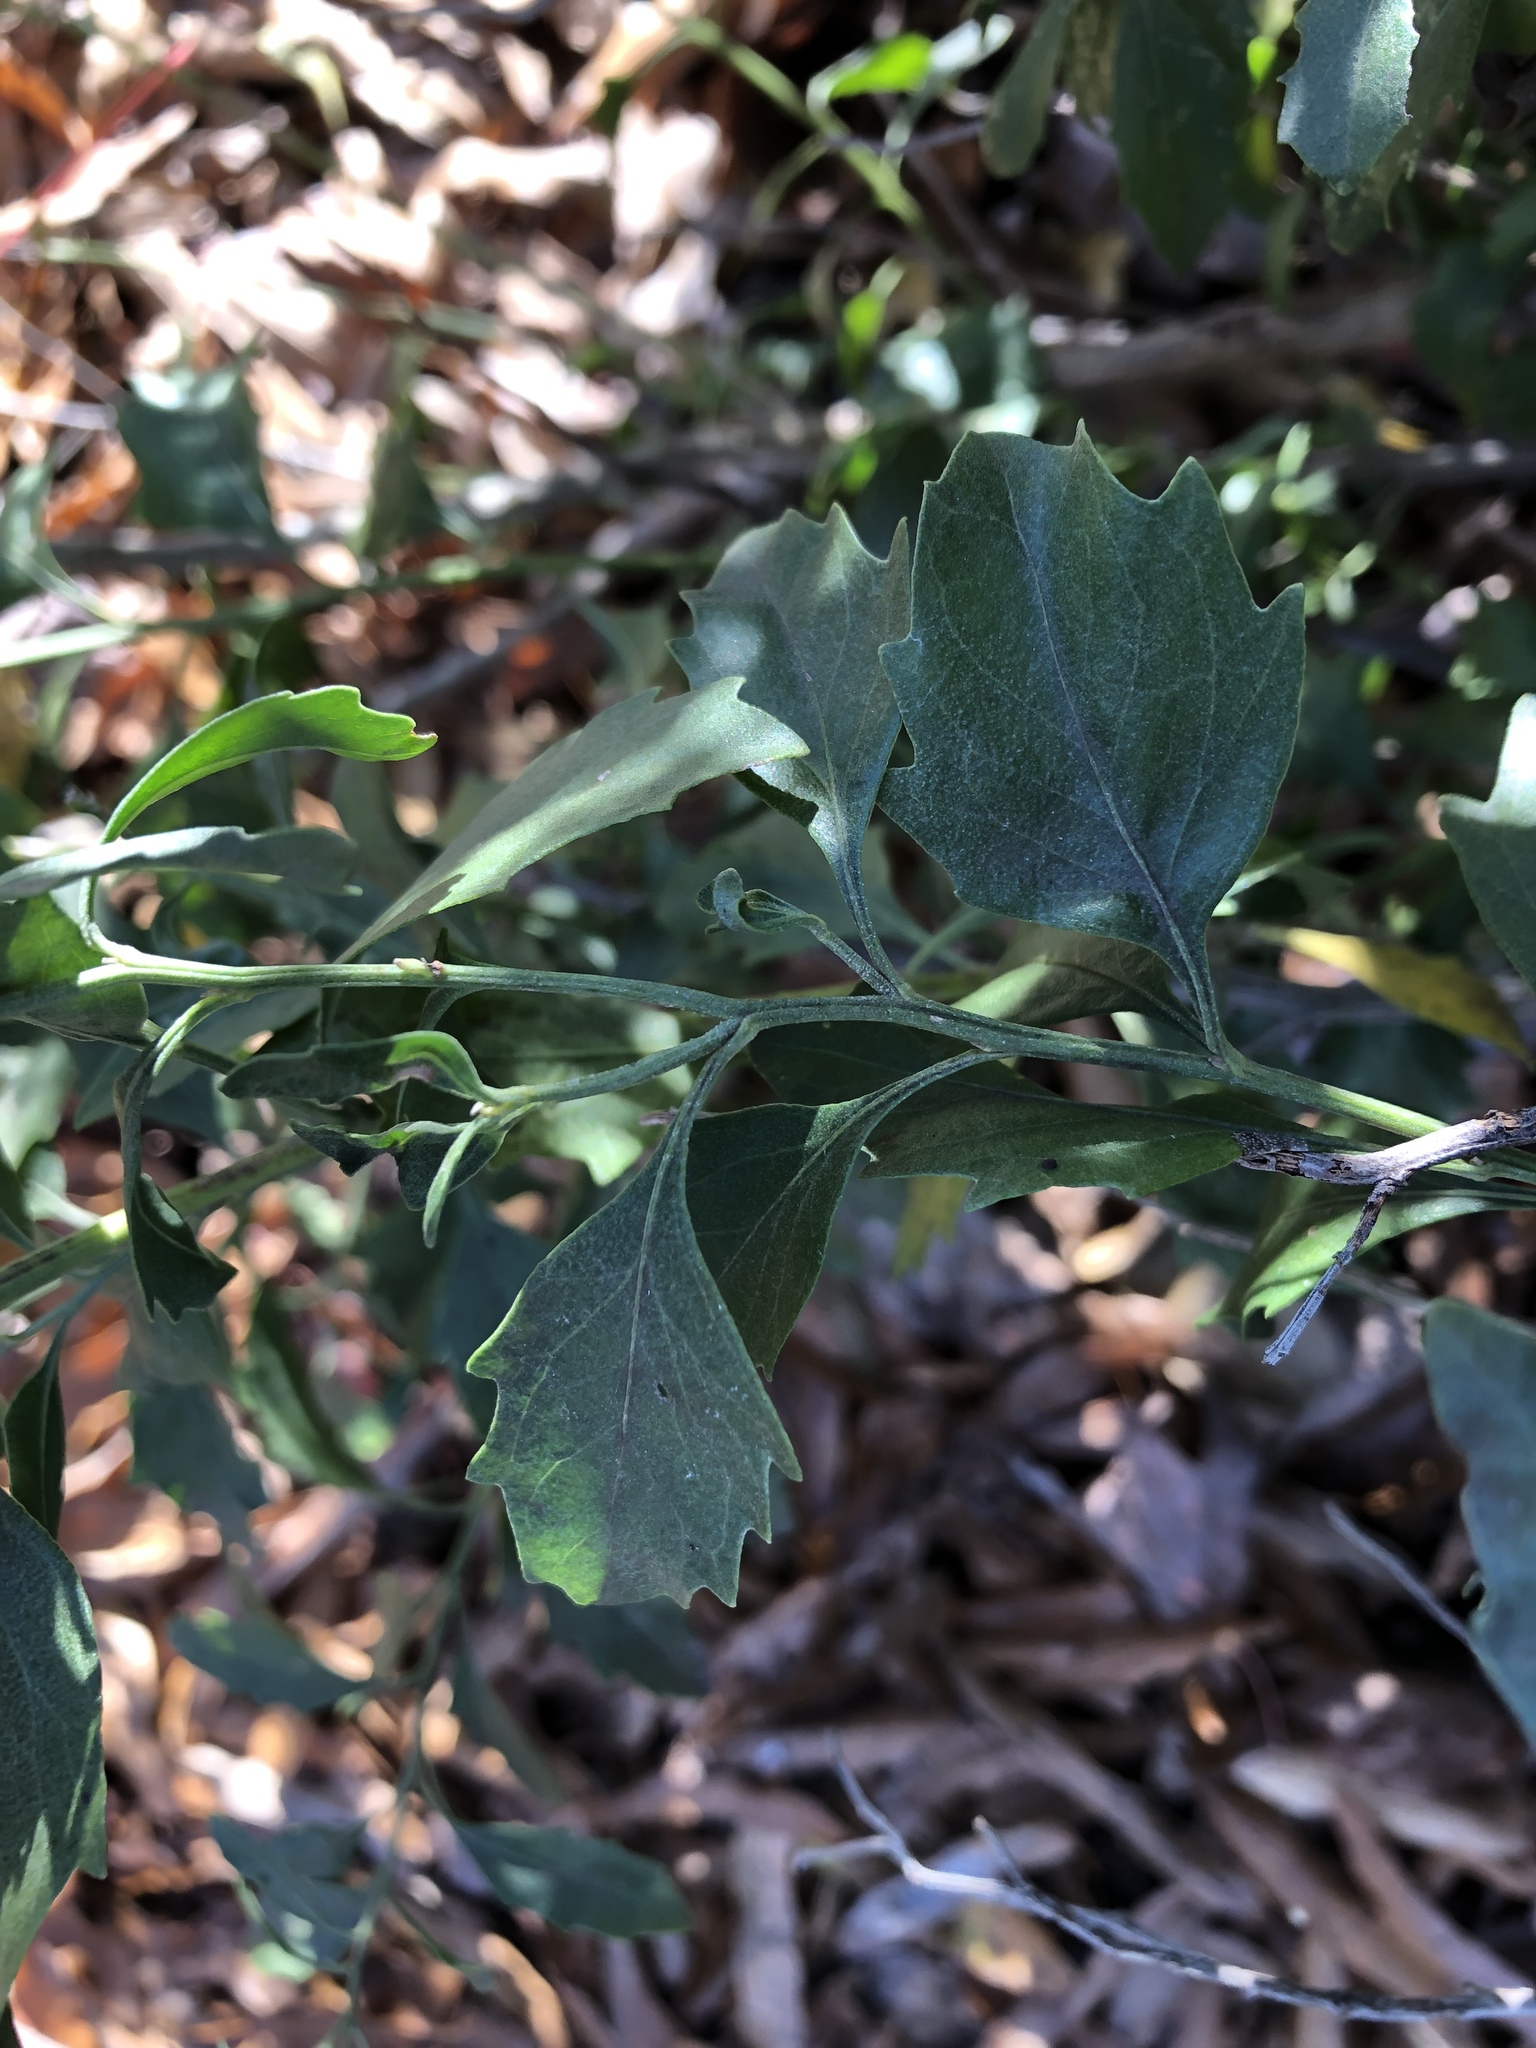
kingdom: Plantae
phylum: Tracheophyta
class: Magnoliopsida
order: Asterales
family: Asteraceae
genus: Baccharis
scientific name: Baccharis halimifolia
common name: Eastern baccharis
